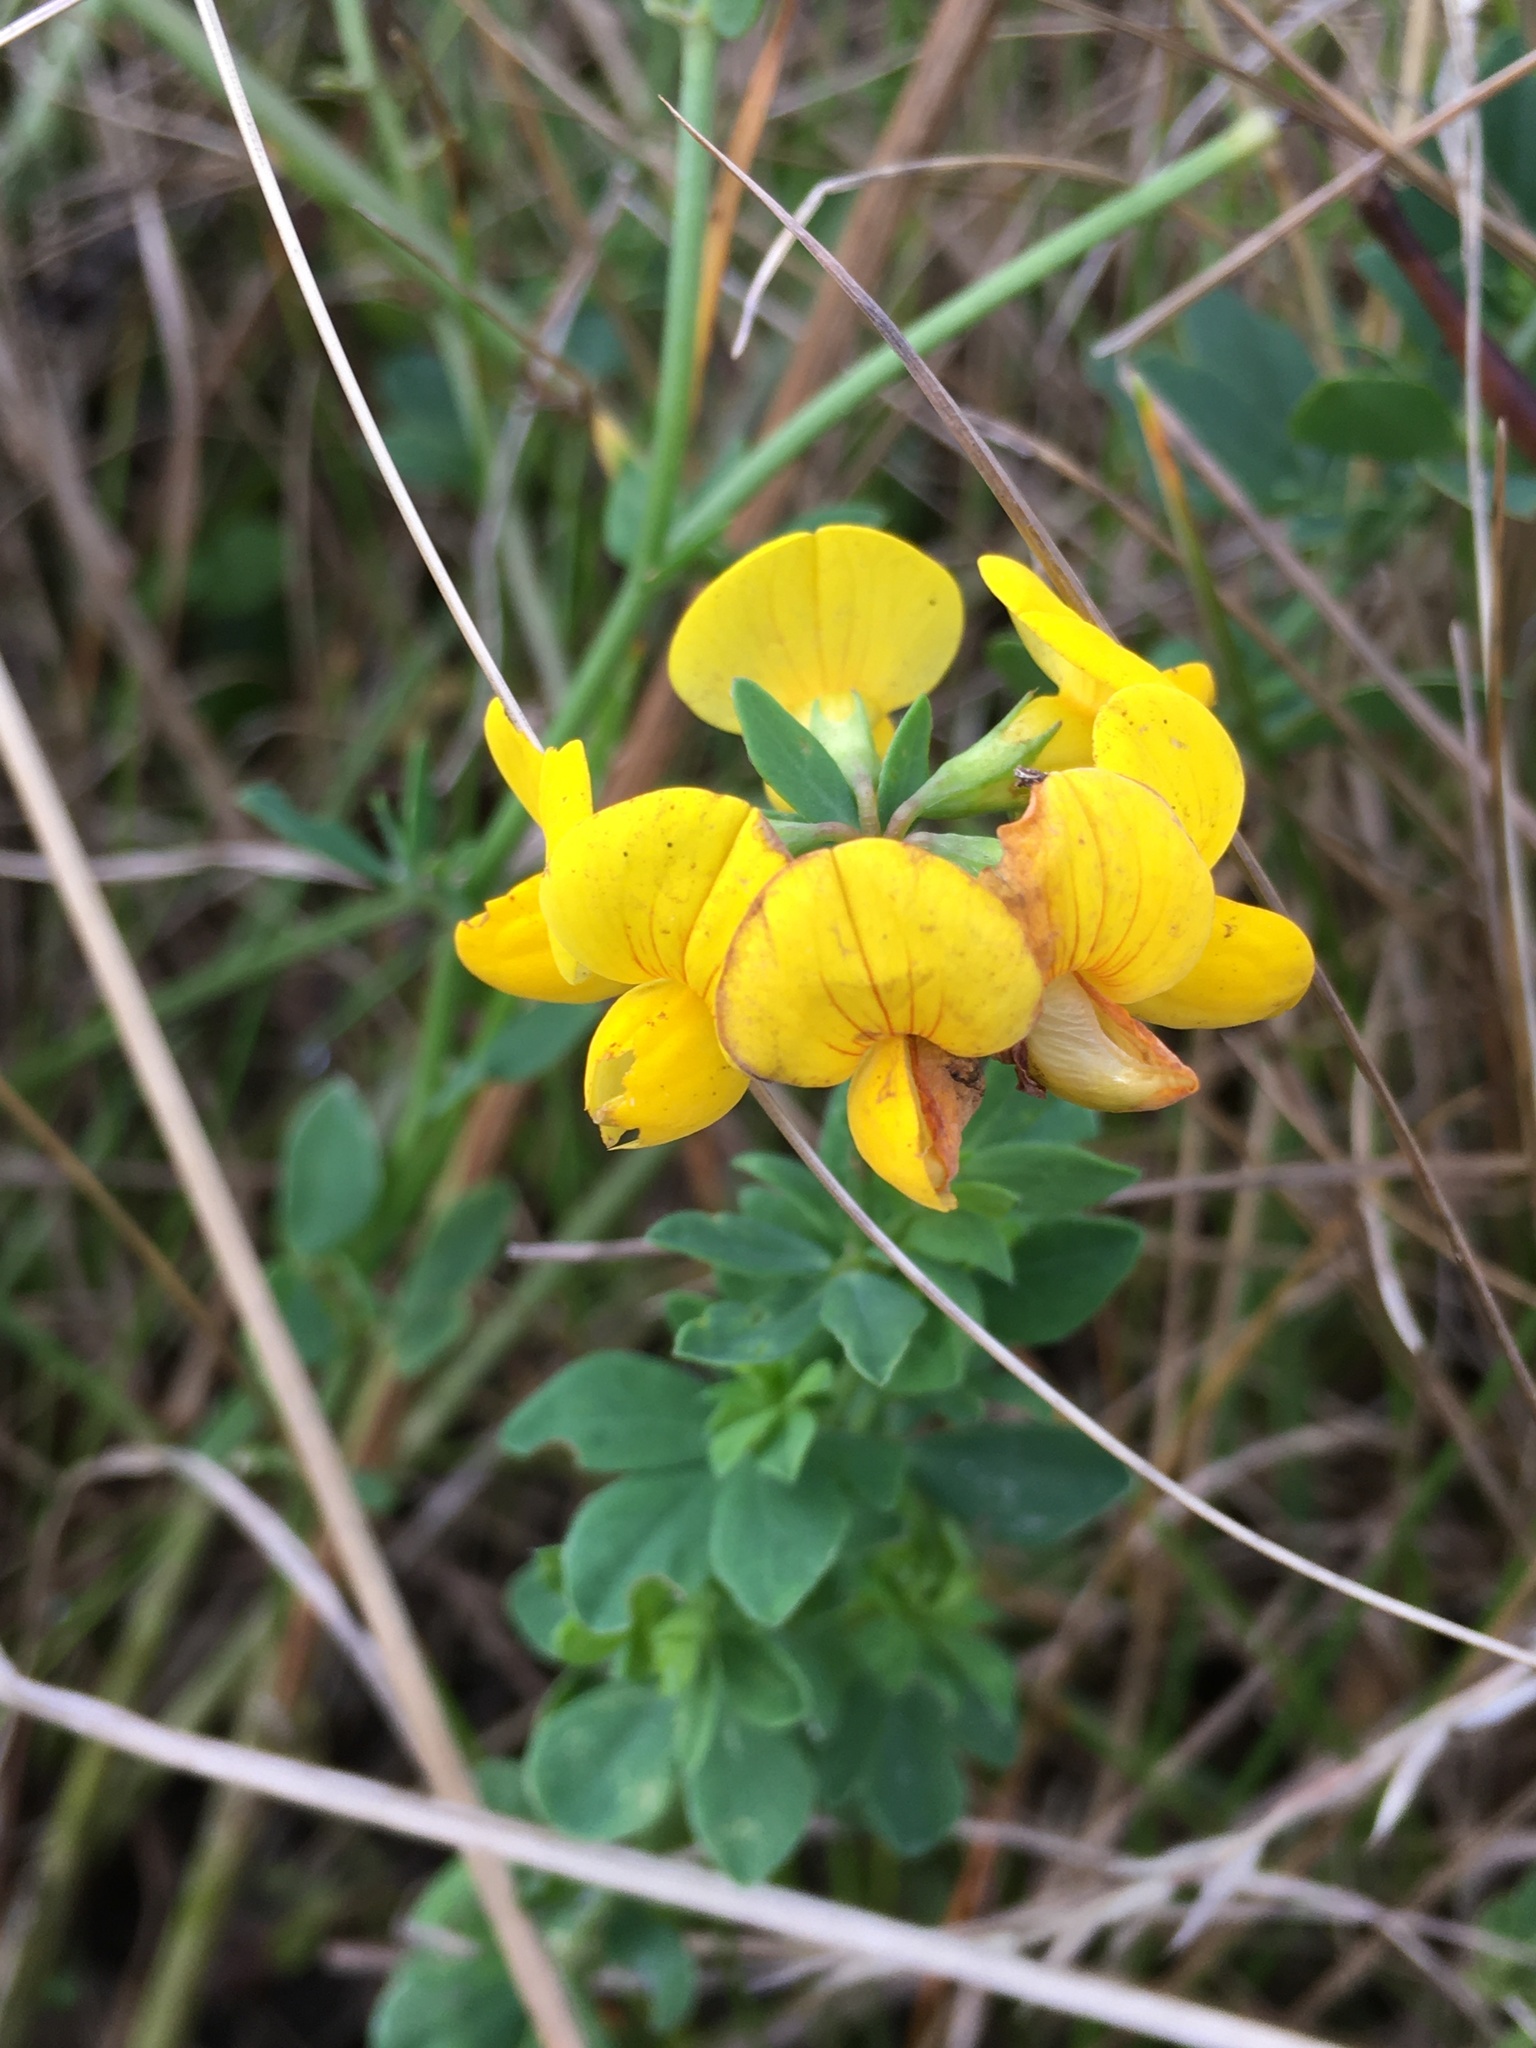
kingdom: Plantae
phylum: Tracheophyta
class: Magnoliopsida
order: Fabales
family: Fabaceae
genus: Lotus
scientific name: Lotus corniculatus
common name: Common bird's-foot-trefoil
